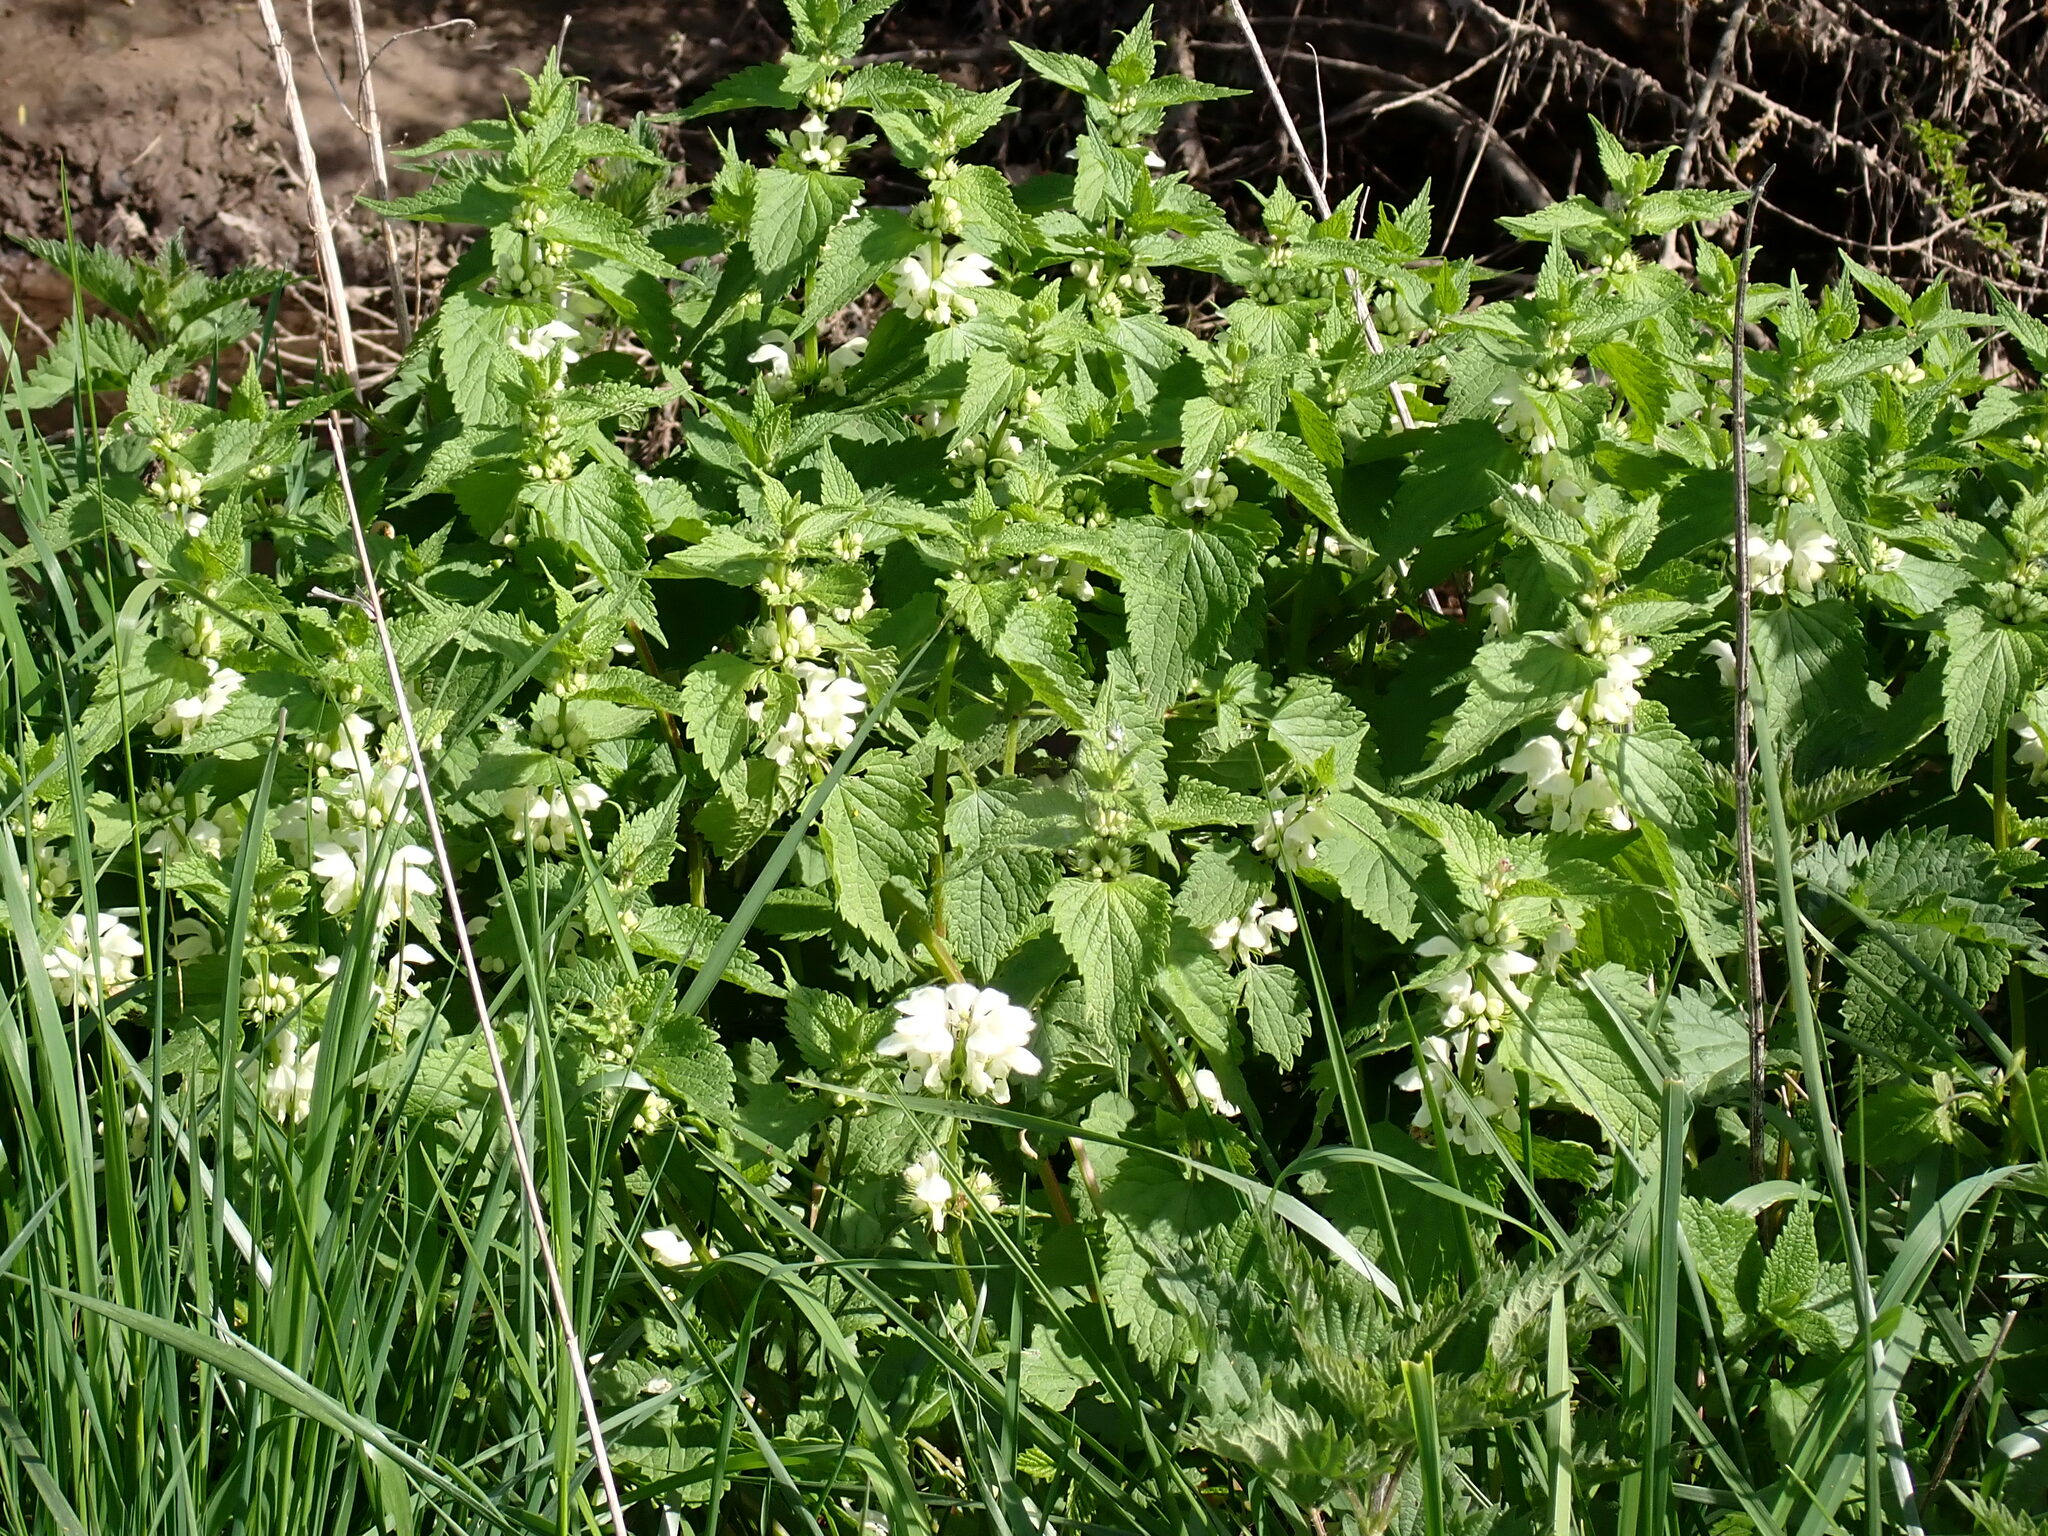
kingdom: Plantae
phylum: Tracheophyta
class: Magnoliopsida
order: Lamiales
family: Lamiaceae
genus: Lamium
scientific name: Lamium album
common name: White dead-nettle
